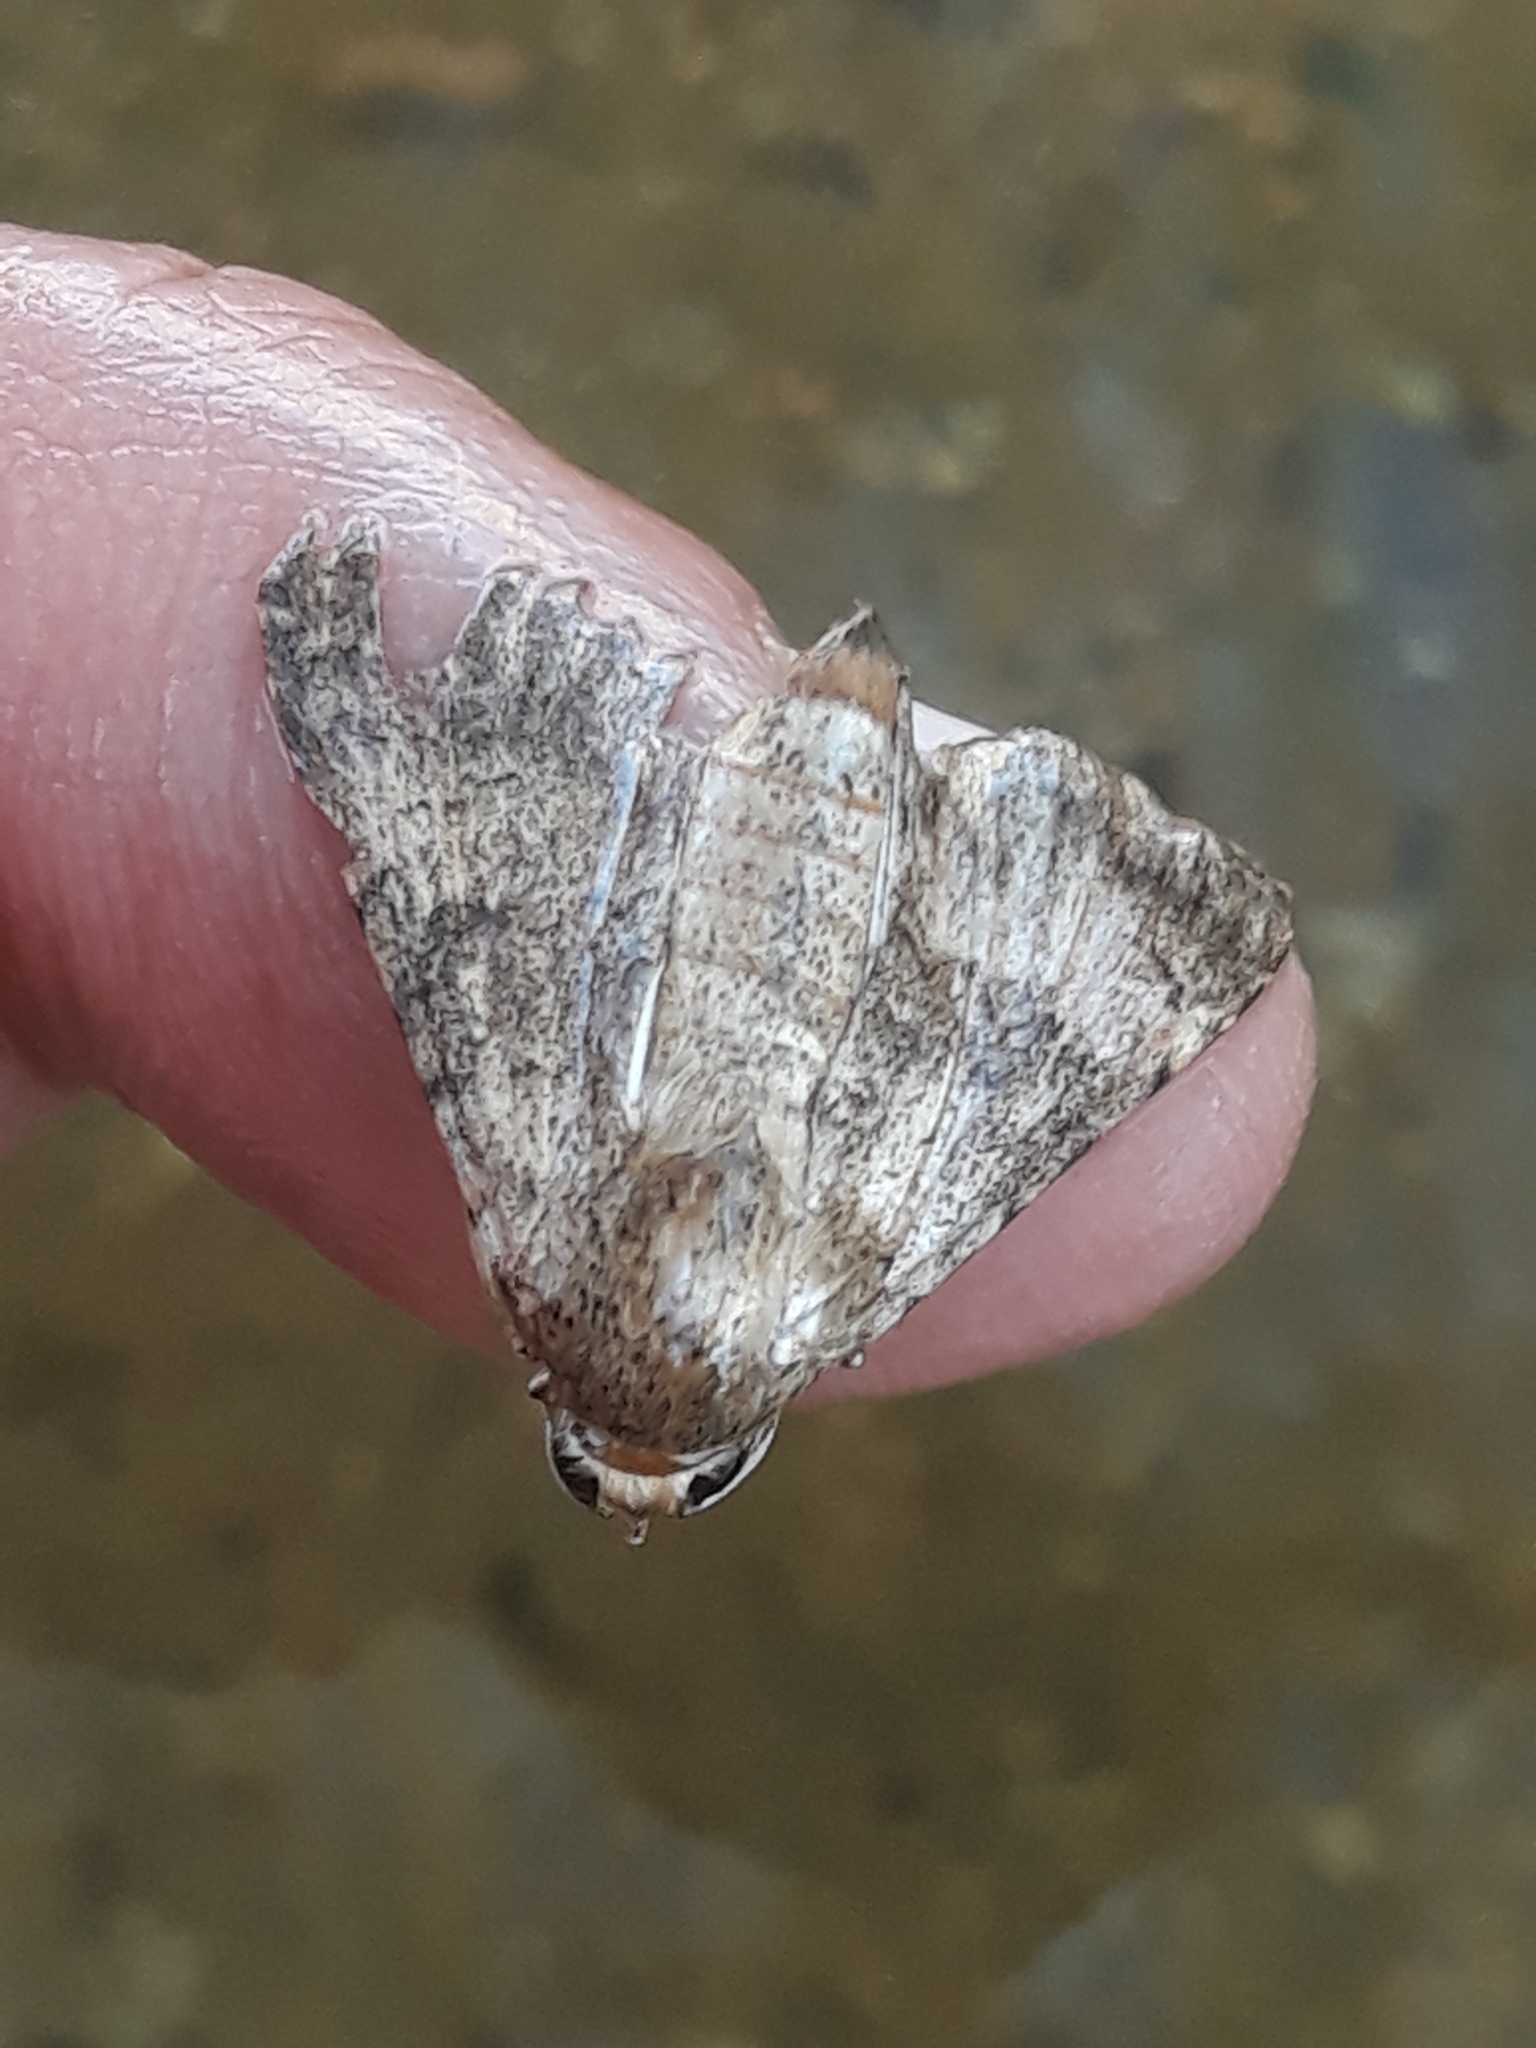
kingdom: Animalia
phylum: Arthropoda
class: Insecta
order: Lepidoptera
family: Erebidae
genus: Pandesma
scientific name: Pandesma robusta
